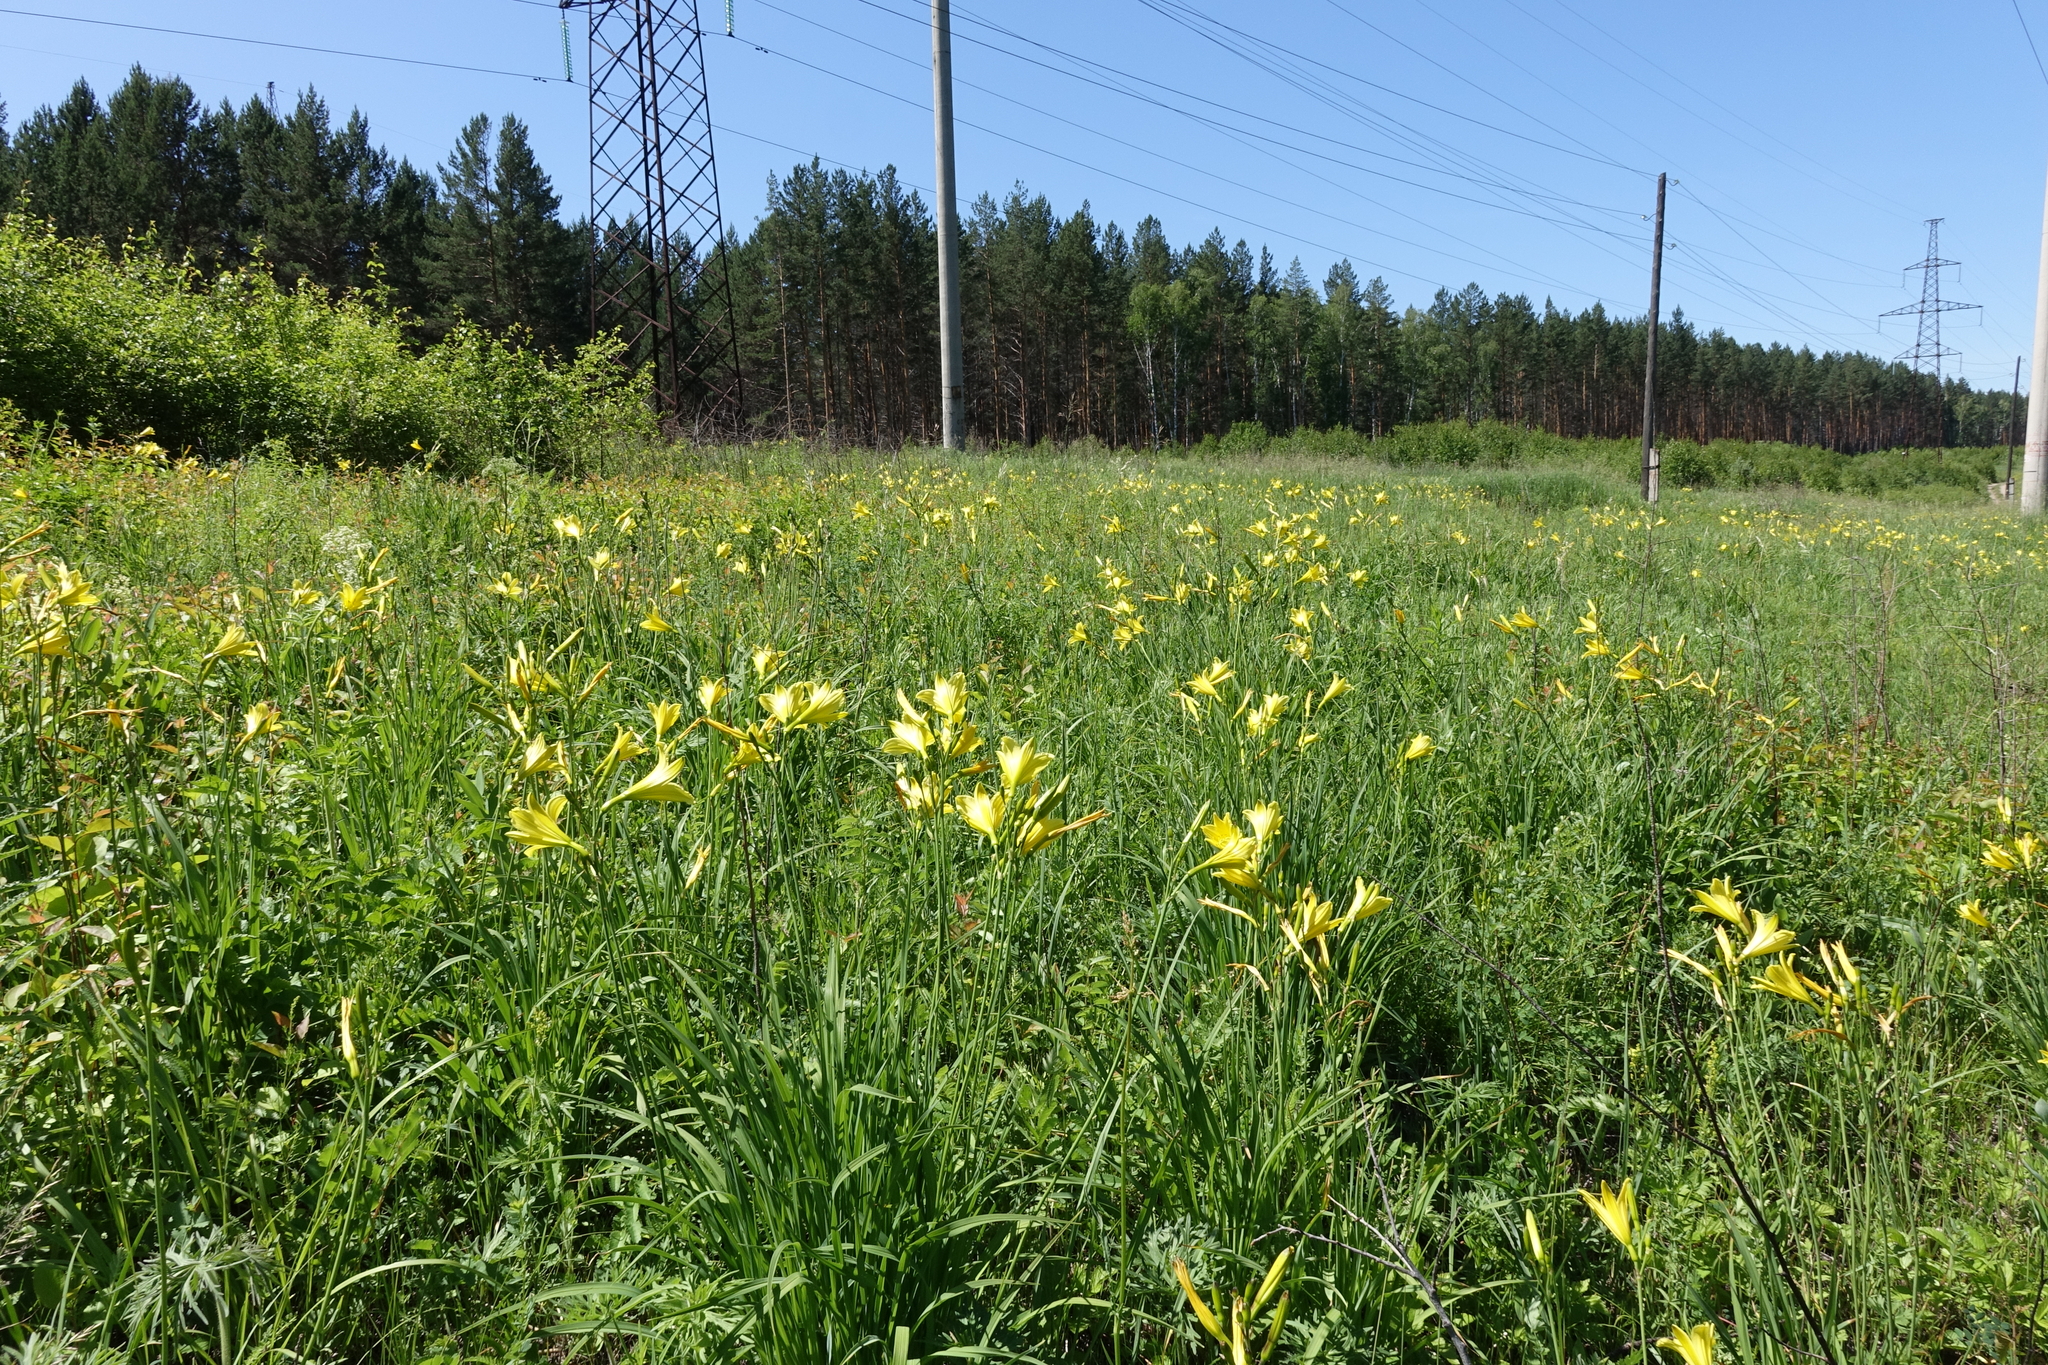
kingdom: Plantae
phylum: Tracheophyta
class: Liliopsida
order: Asparagales
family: Asphodelaceae
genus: Hemerocallis
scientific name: Hemerocallis minor
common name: Small daylily
